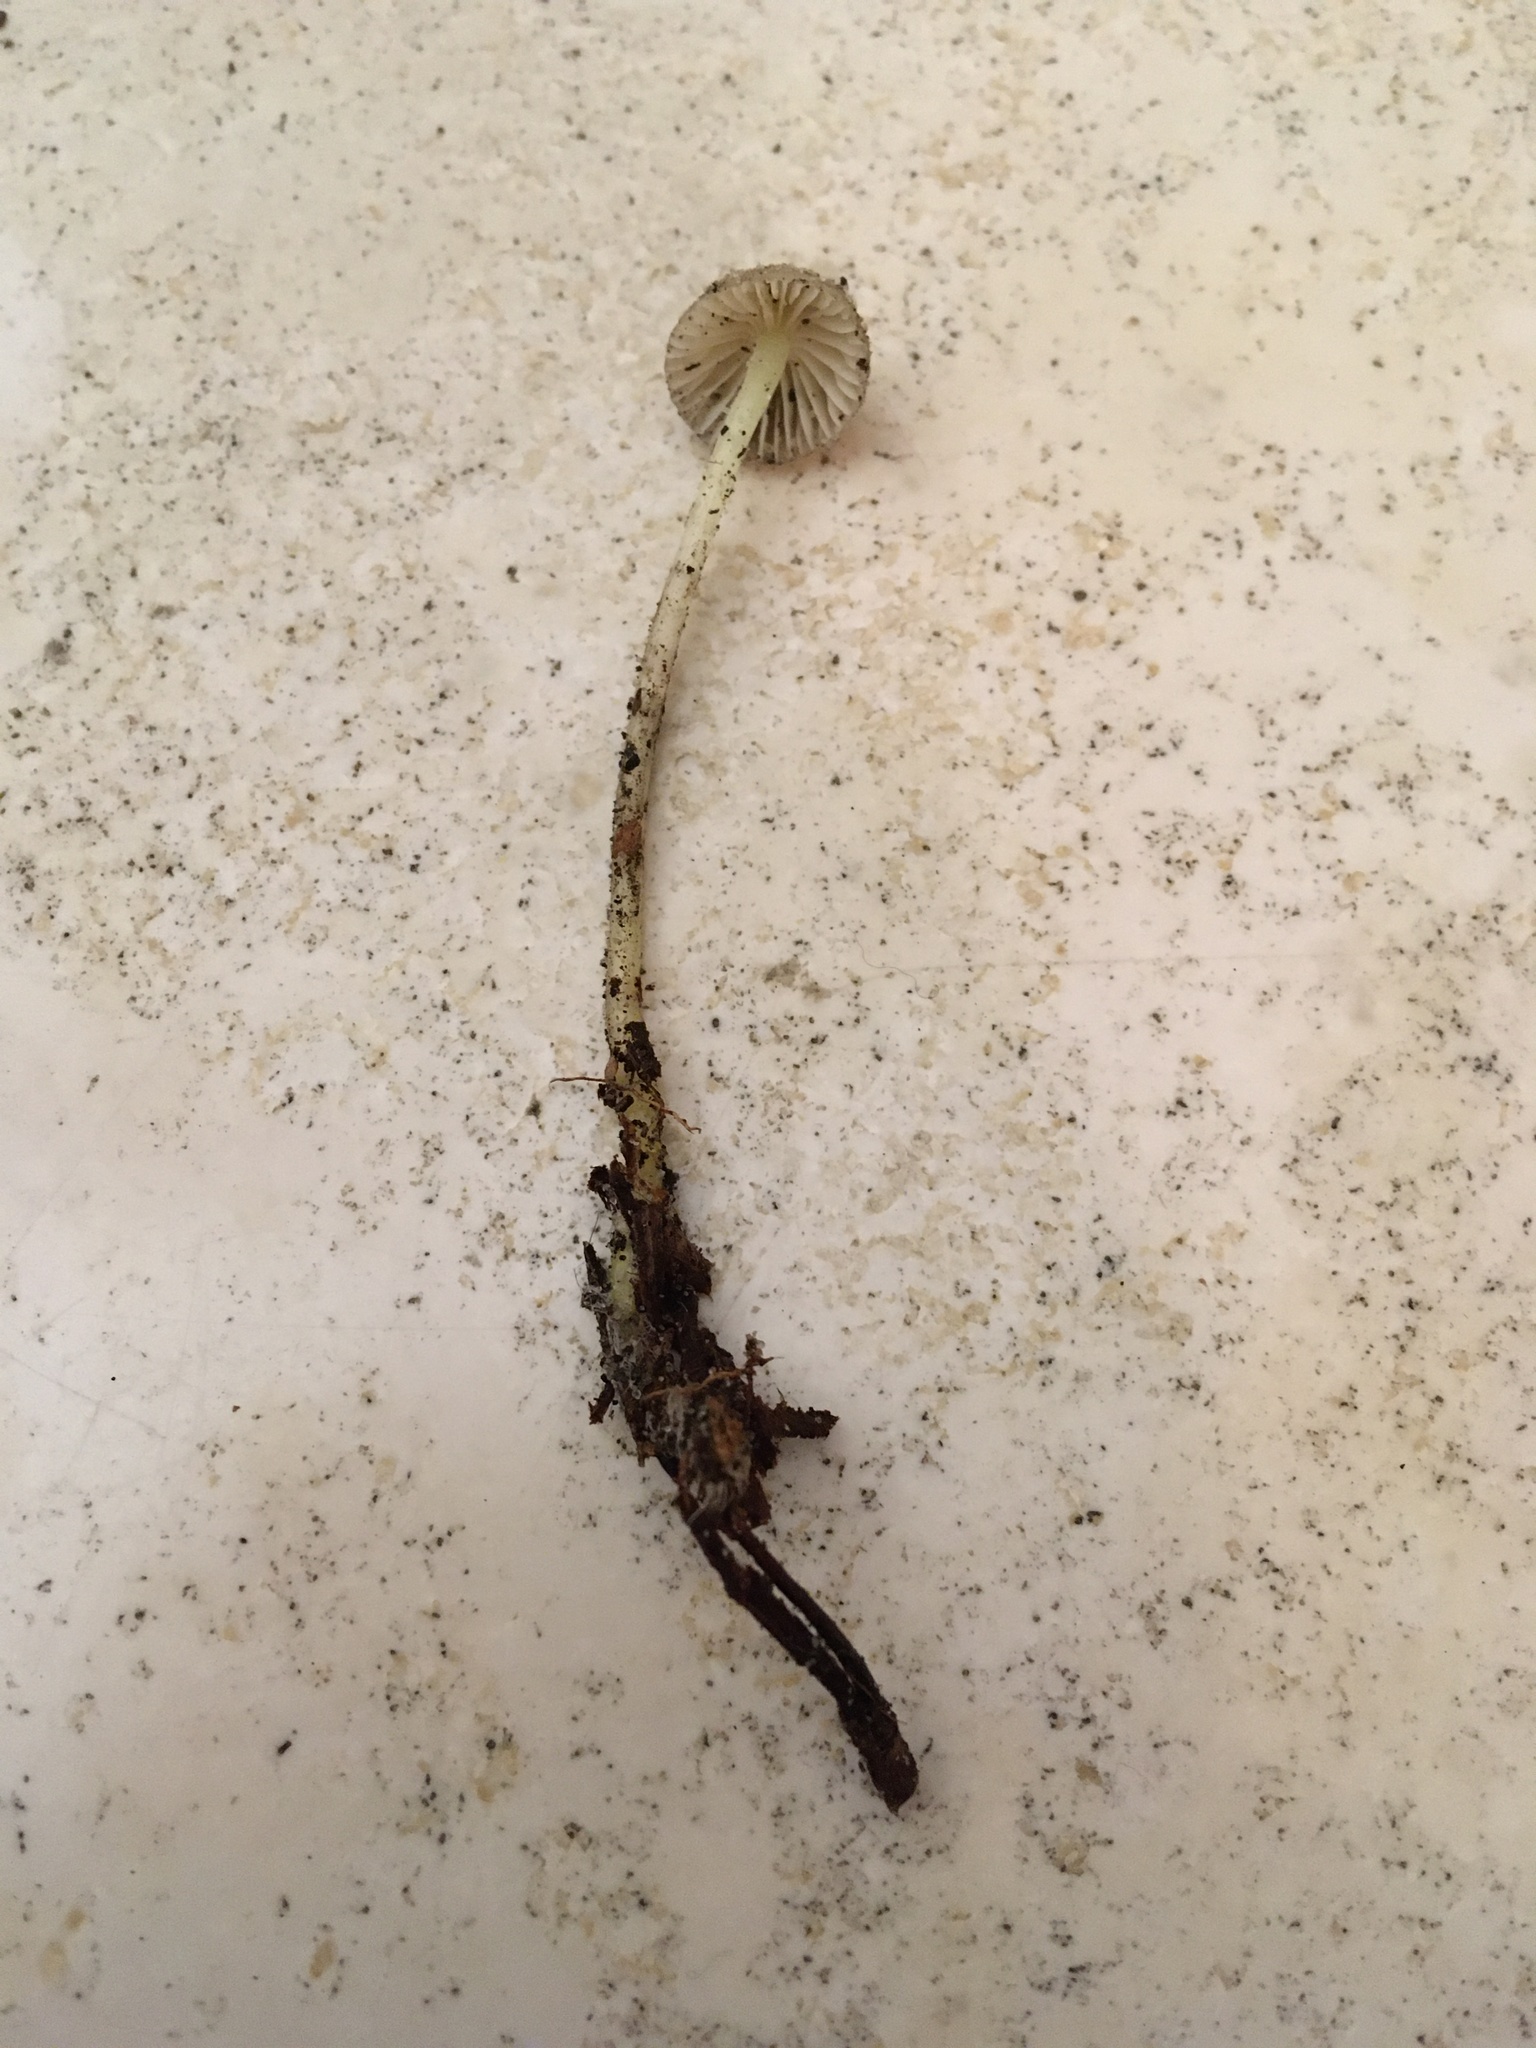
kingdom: Fungi
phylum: Basidiomycota
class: Agaricomycetes
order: Agaricales
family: Mycenaceae
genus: Mycena
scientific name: Mycena epipterygia
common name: Yellowleg bonnet
